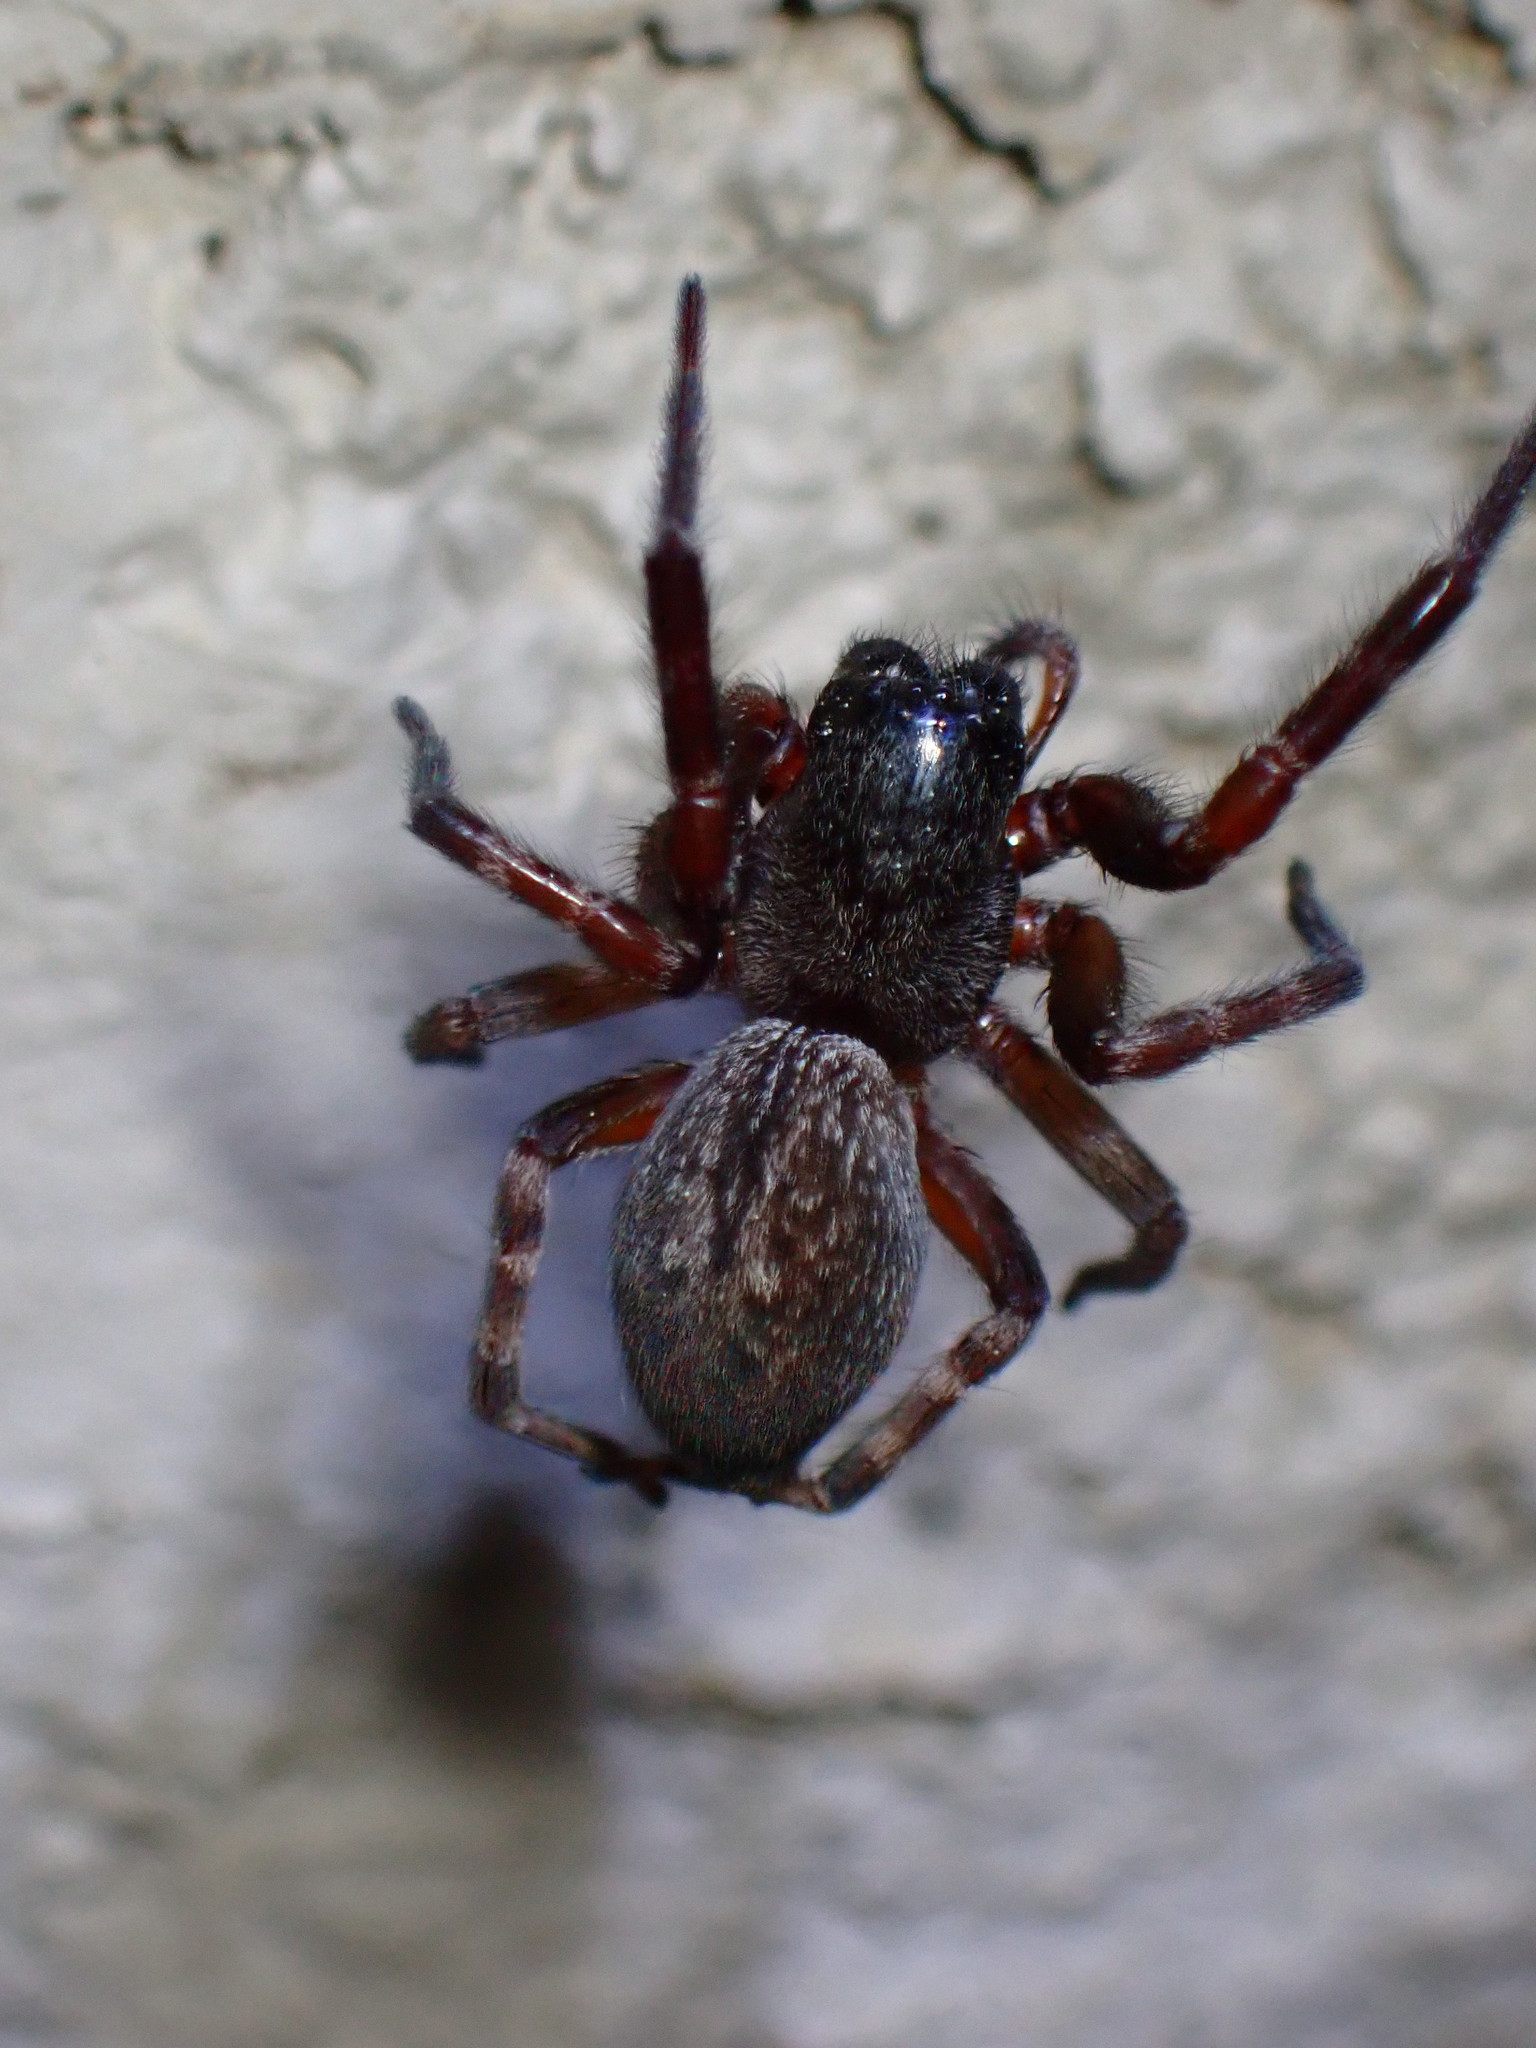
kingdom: Animalia
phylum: Arthropoda
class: Arachnida
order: Araneae
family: Desidae
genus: Badumna
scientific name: Badumna longinqua
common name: Gray house spider
